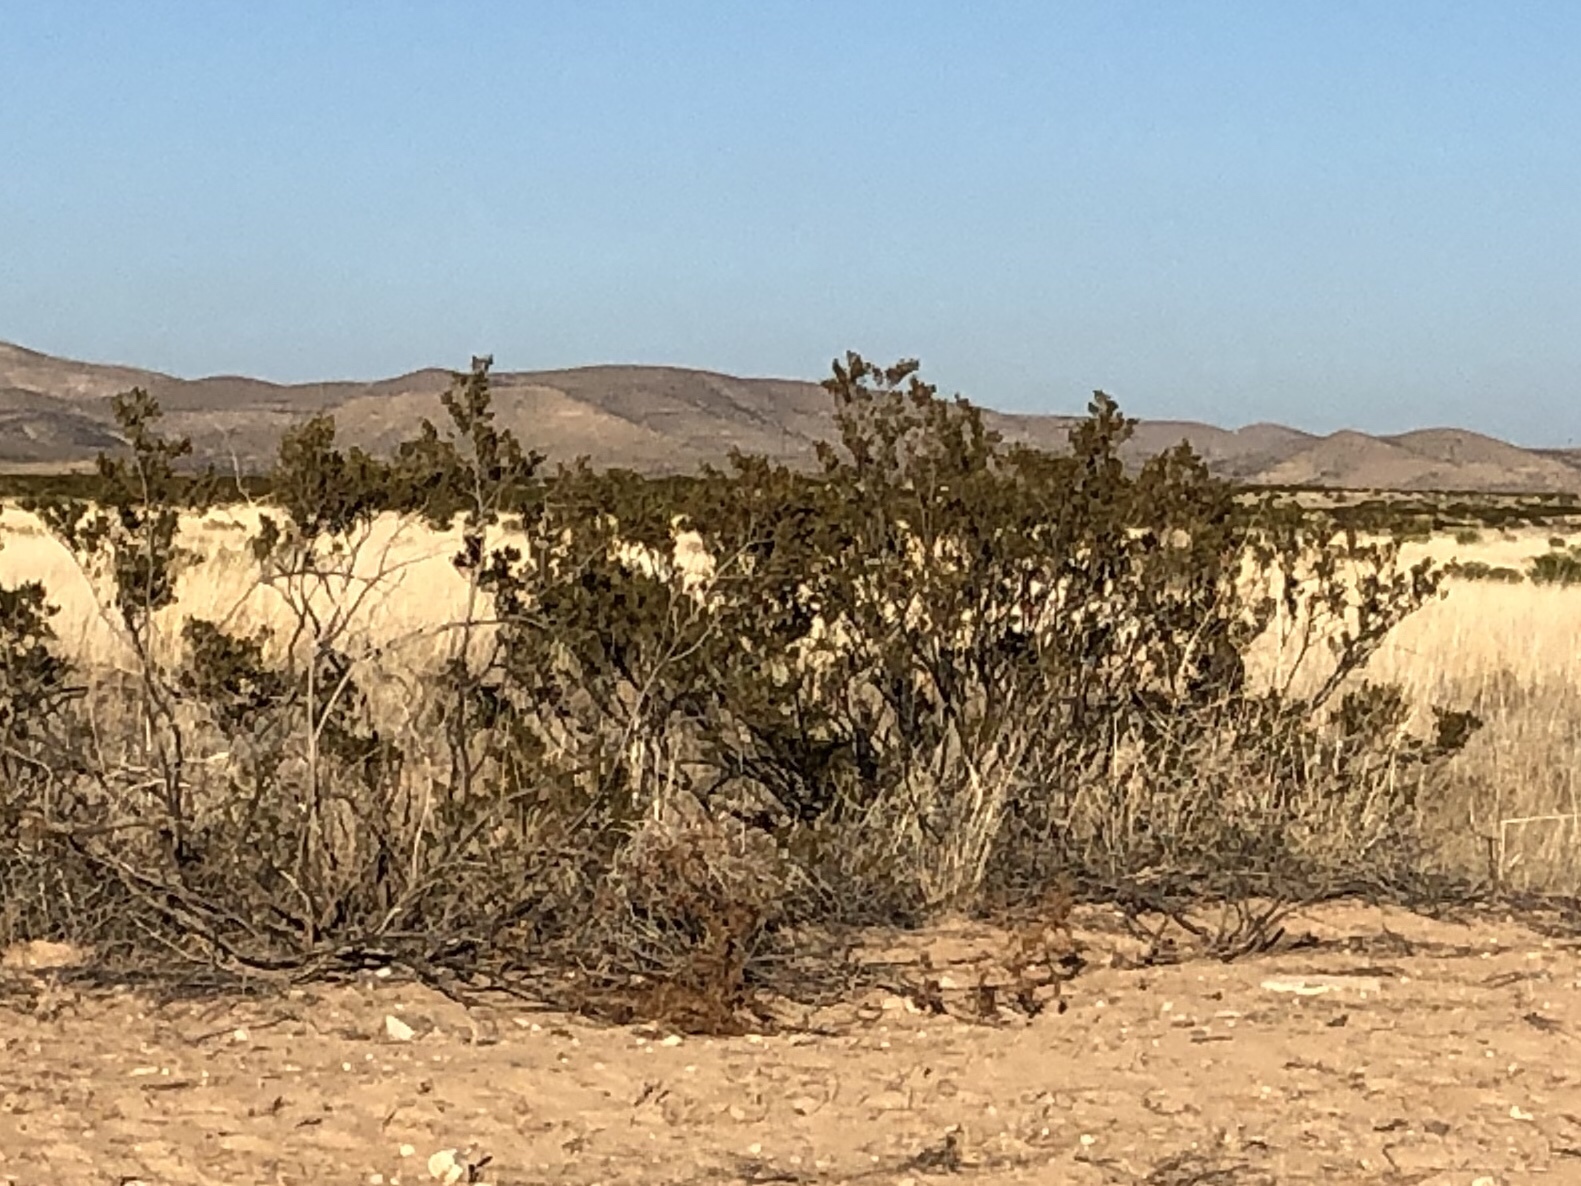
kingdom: Plantae
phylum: Tracheophyta
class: Magnoliopsida
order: Zygophyllales
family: Zygophyllaceae
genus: Larrea
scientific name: Larrea tridentata
